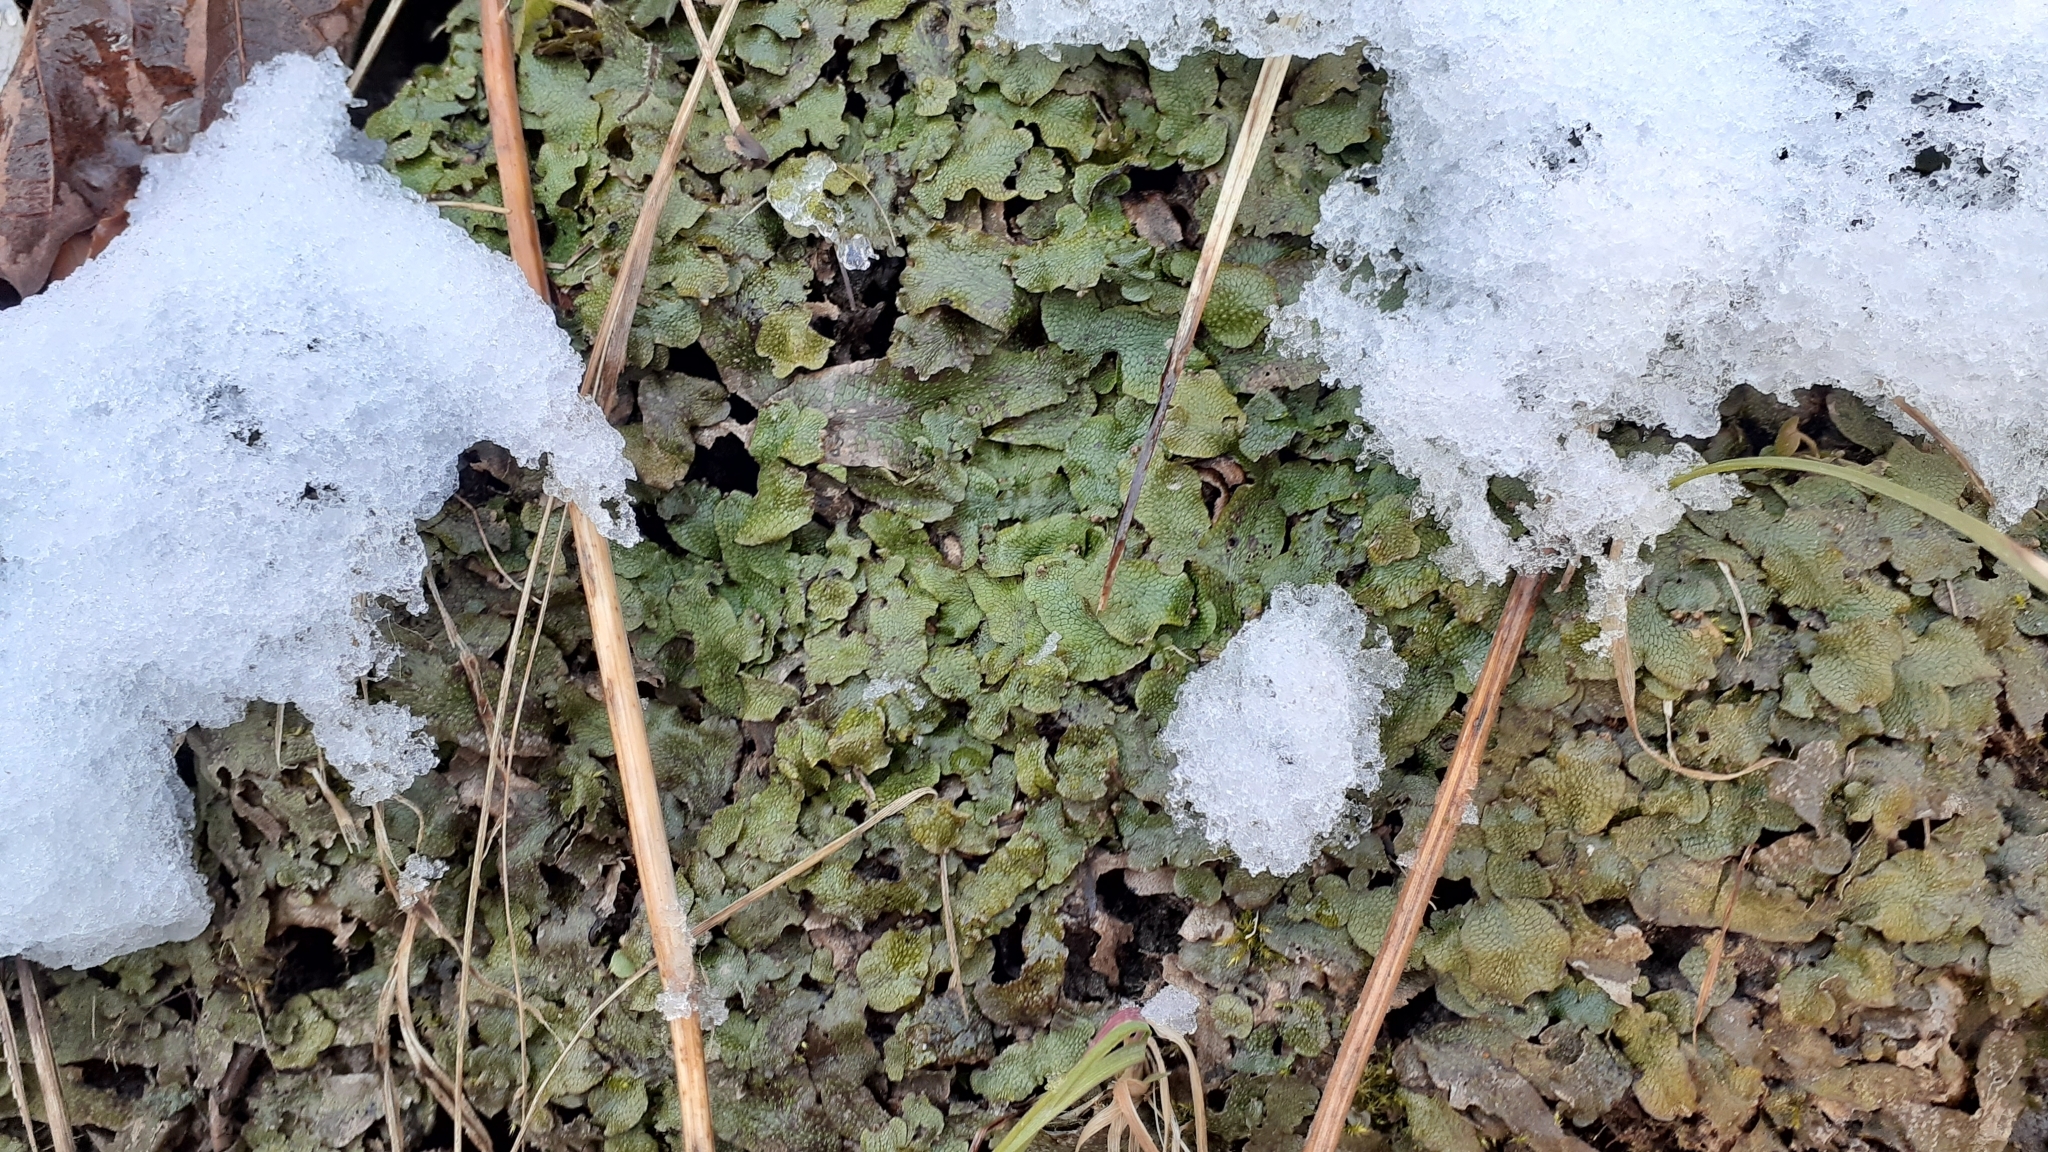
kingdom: Plantae
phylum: Marchantiophyta
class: Marchantiopsida
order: Marchantiales
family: Conocephalaceae
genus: Conocephalum
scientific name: Conocephalum salebrosum
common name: Cat-tongue liverwort
